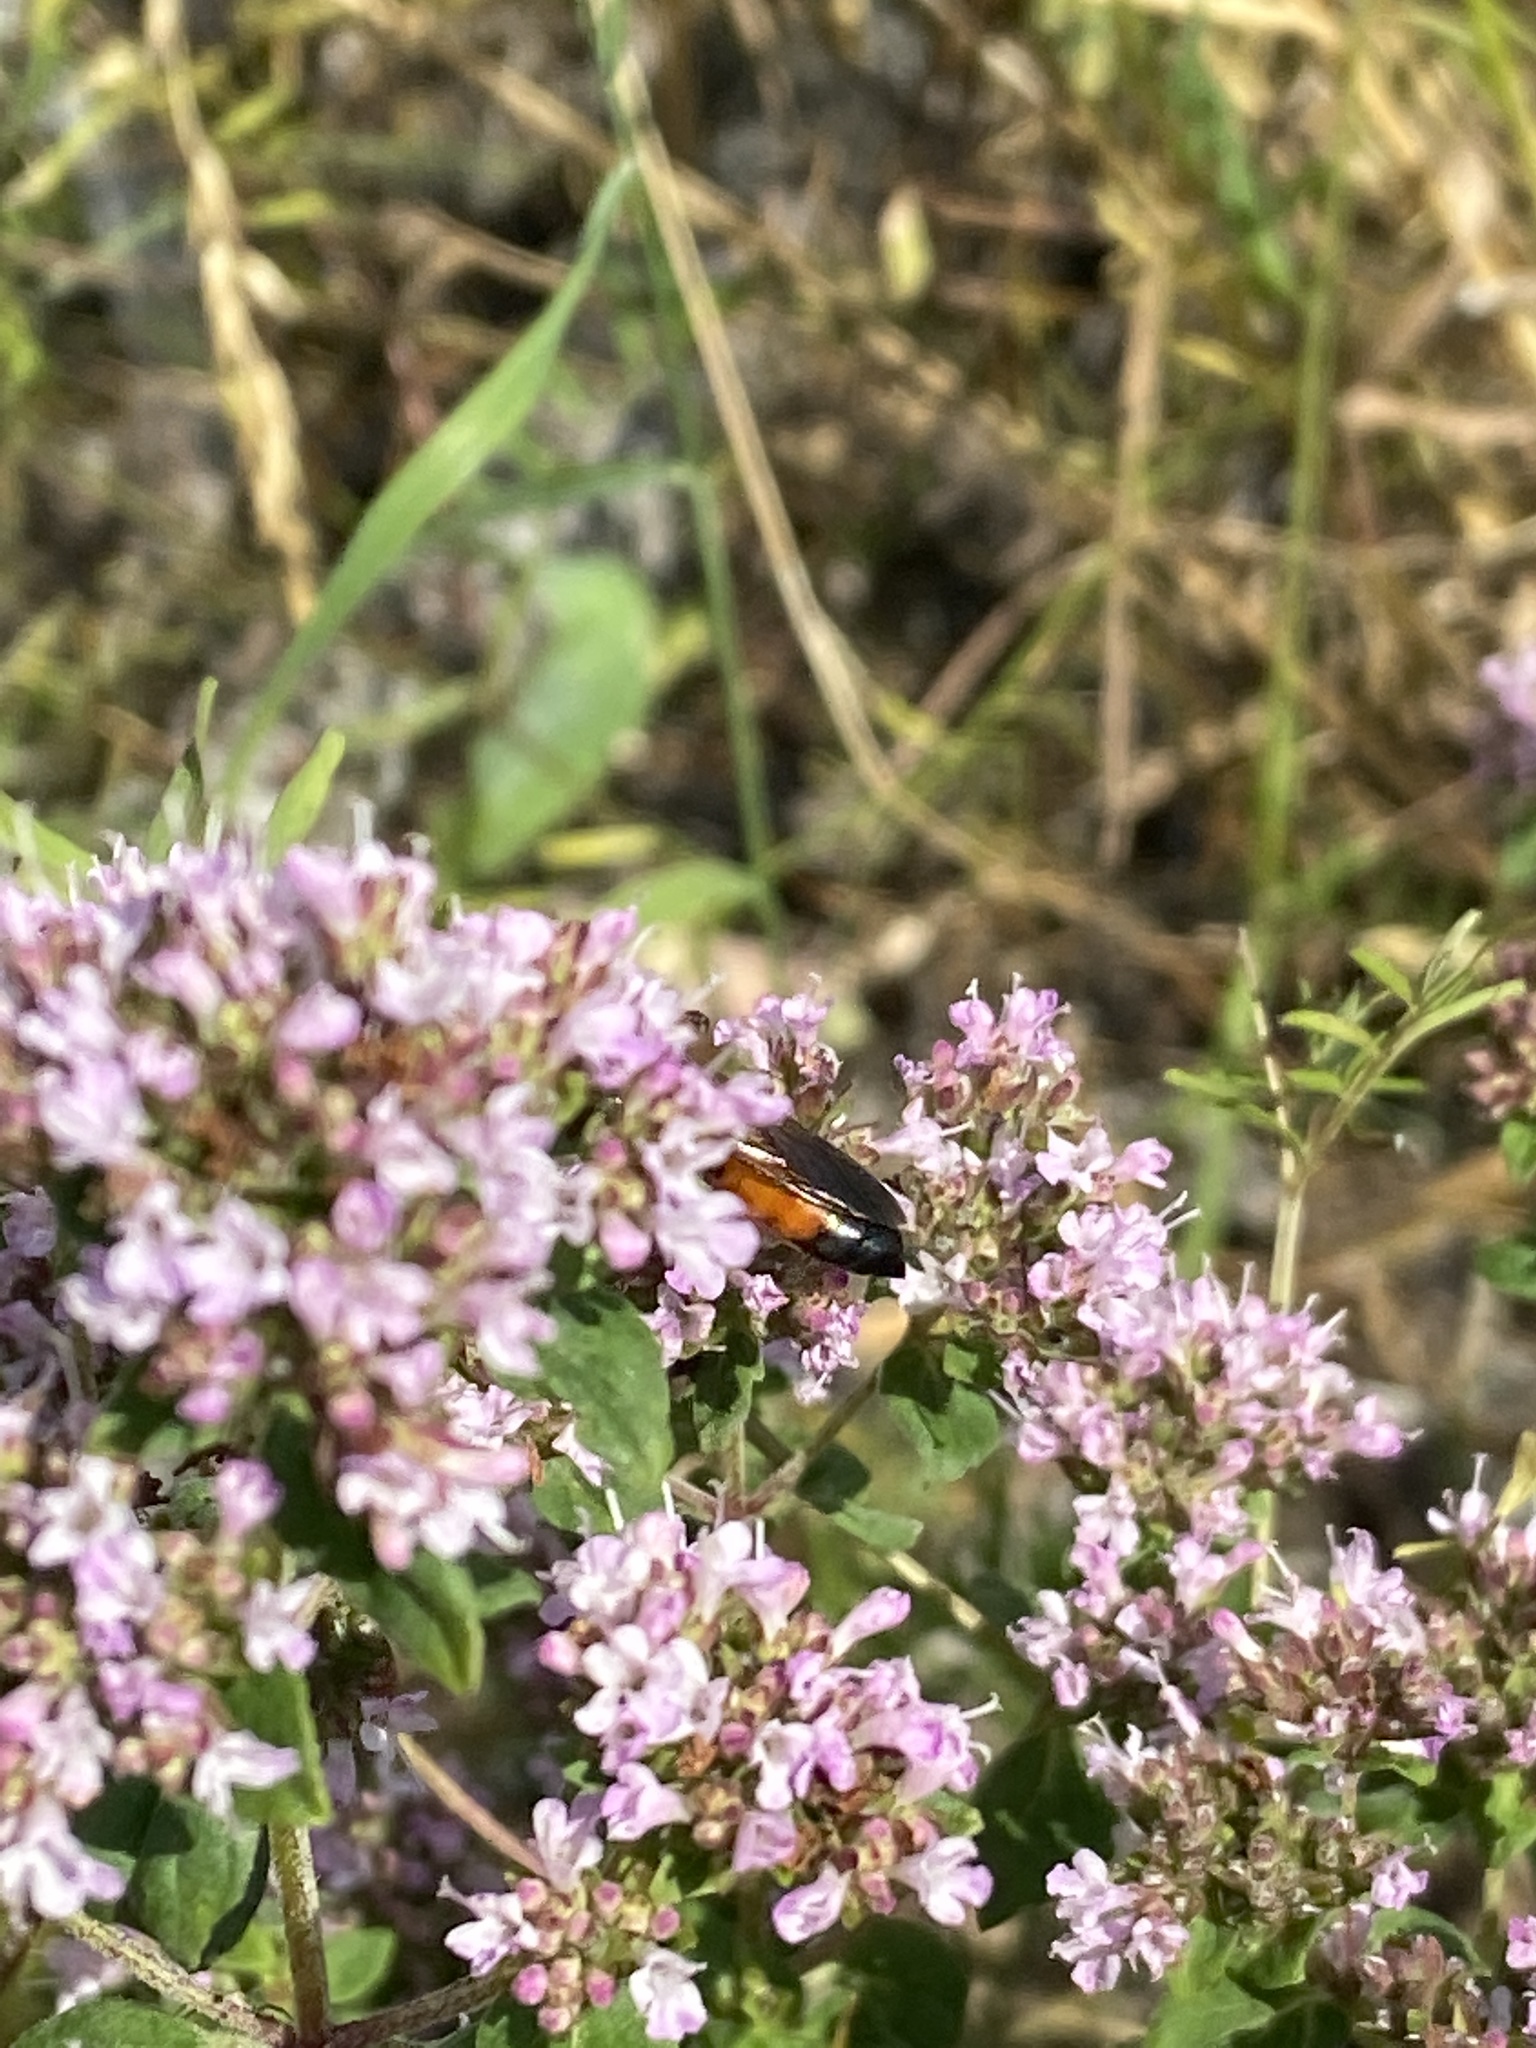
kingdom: Animalia
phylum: Arthropoda
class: Insecta
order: Hymenoptera
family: Sphecidae
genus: Sphex
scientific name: Sphex funerarius
